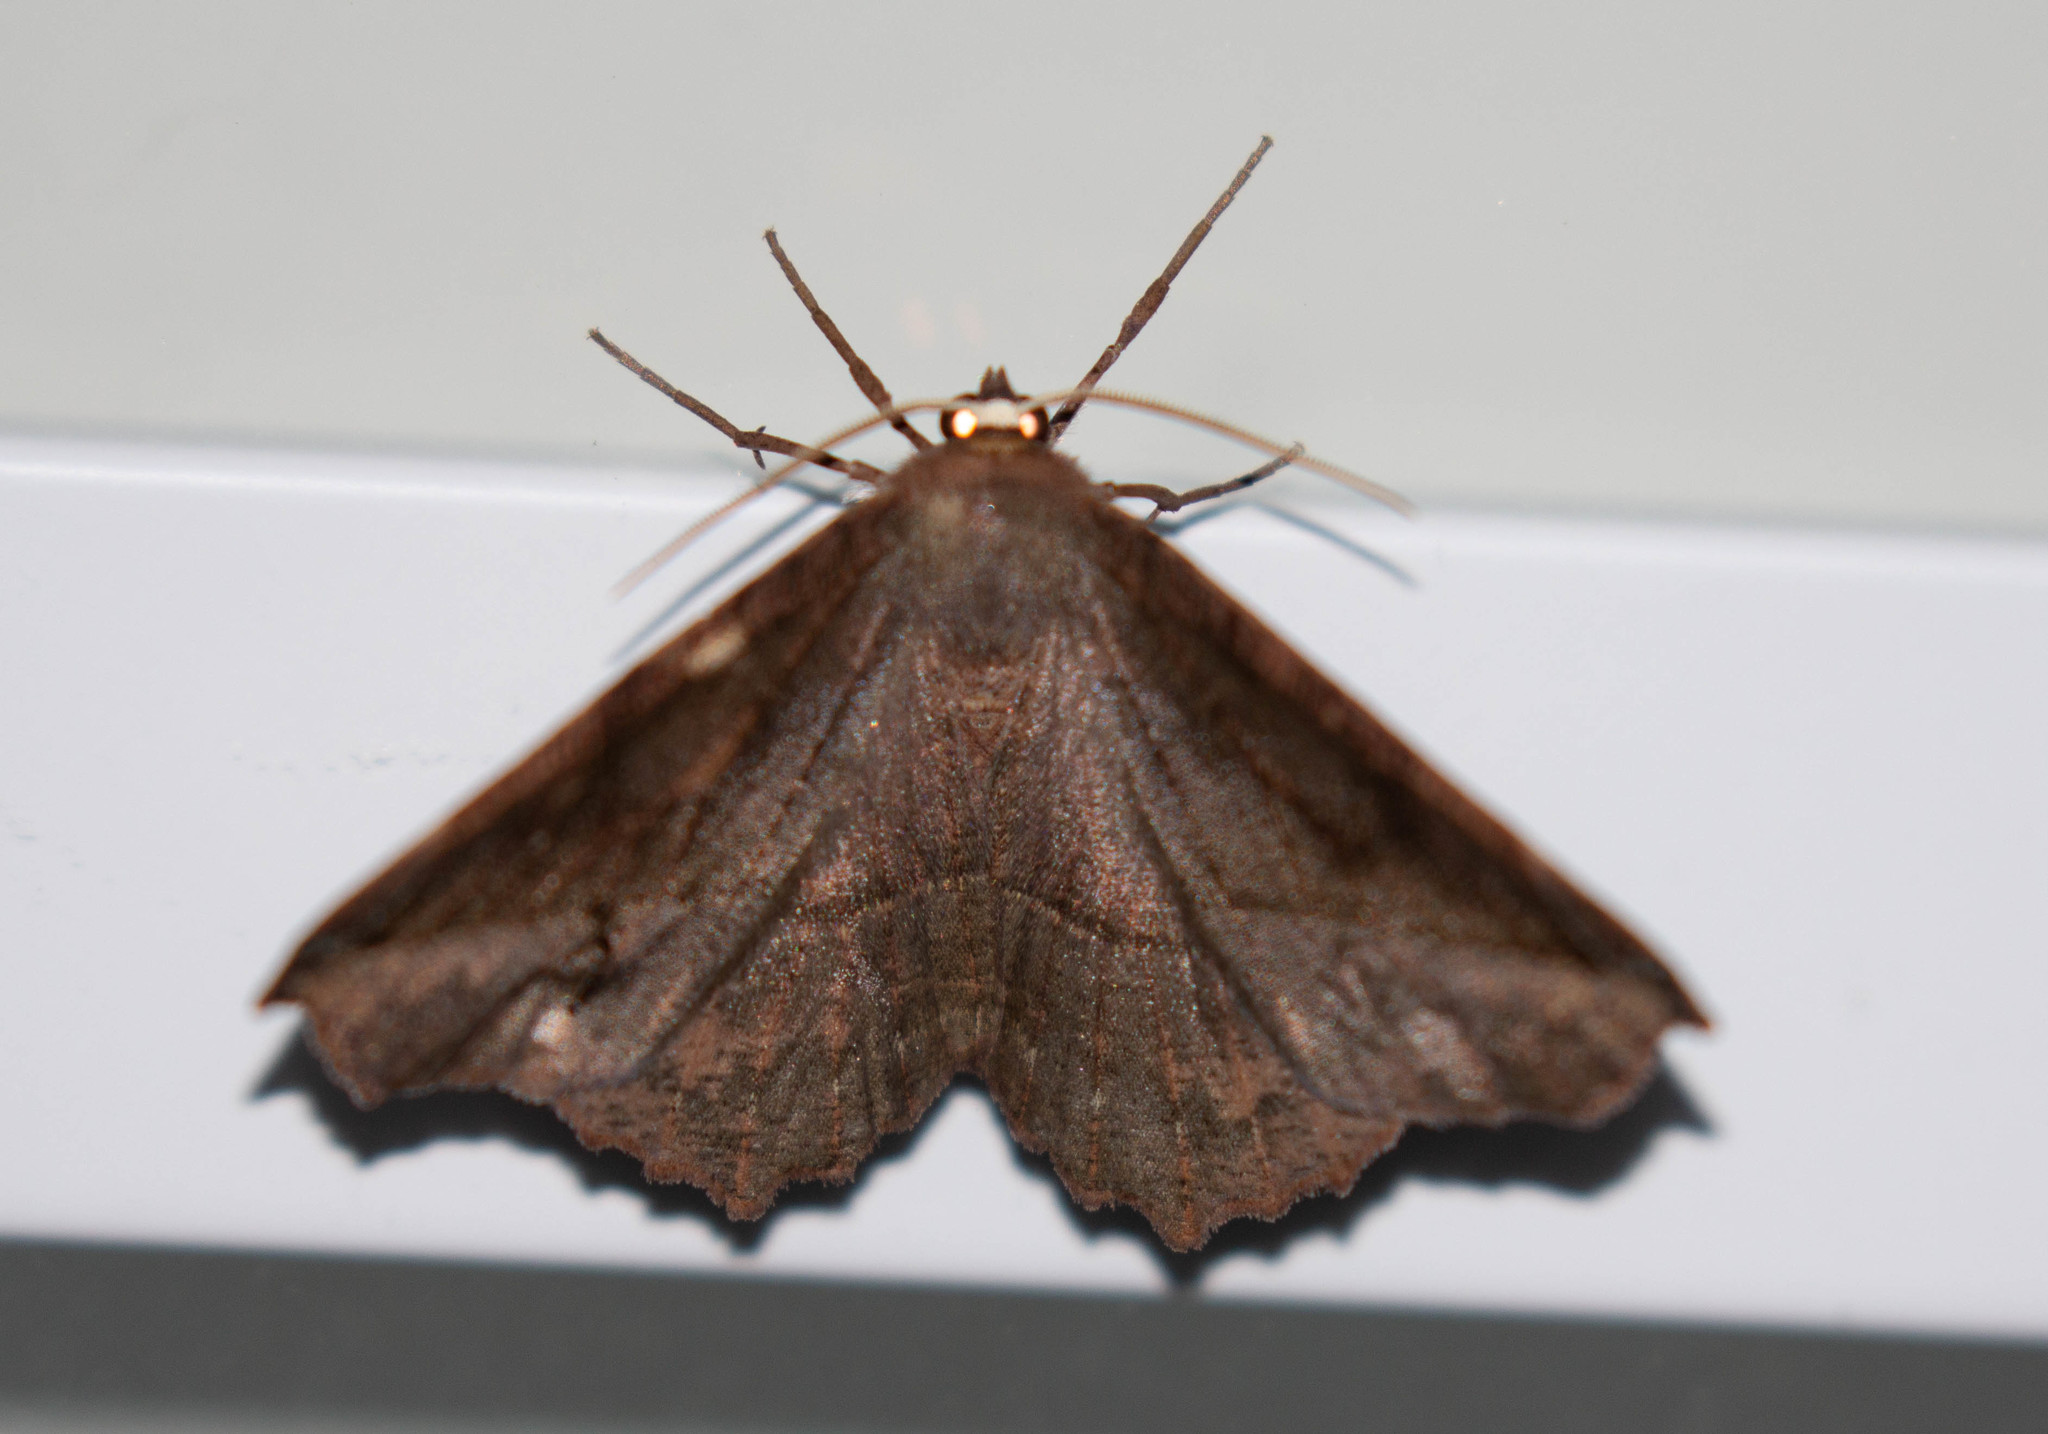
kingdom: Animalia
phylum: Arthropoda
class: Insecta
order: Lepidoptera
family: Geometridae
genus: Eutrapela
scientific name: Eutrapela clemataria
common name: Curved-toothed geometer
